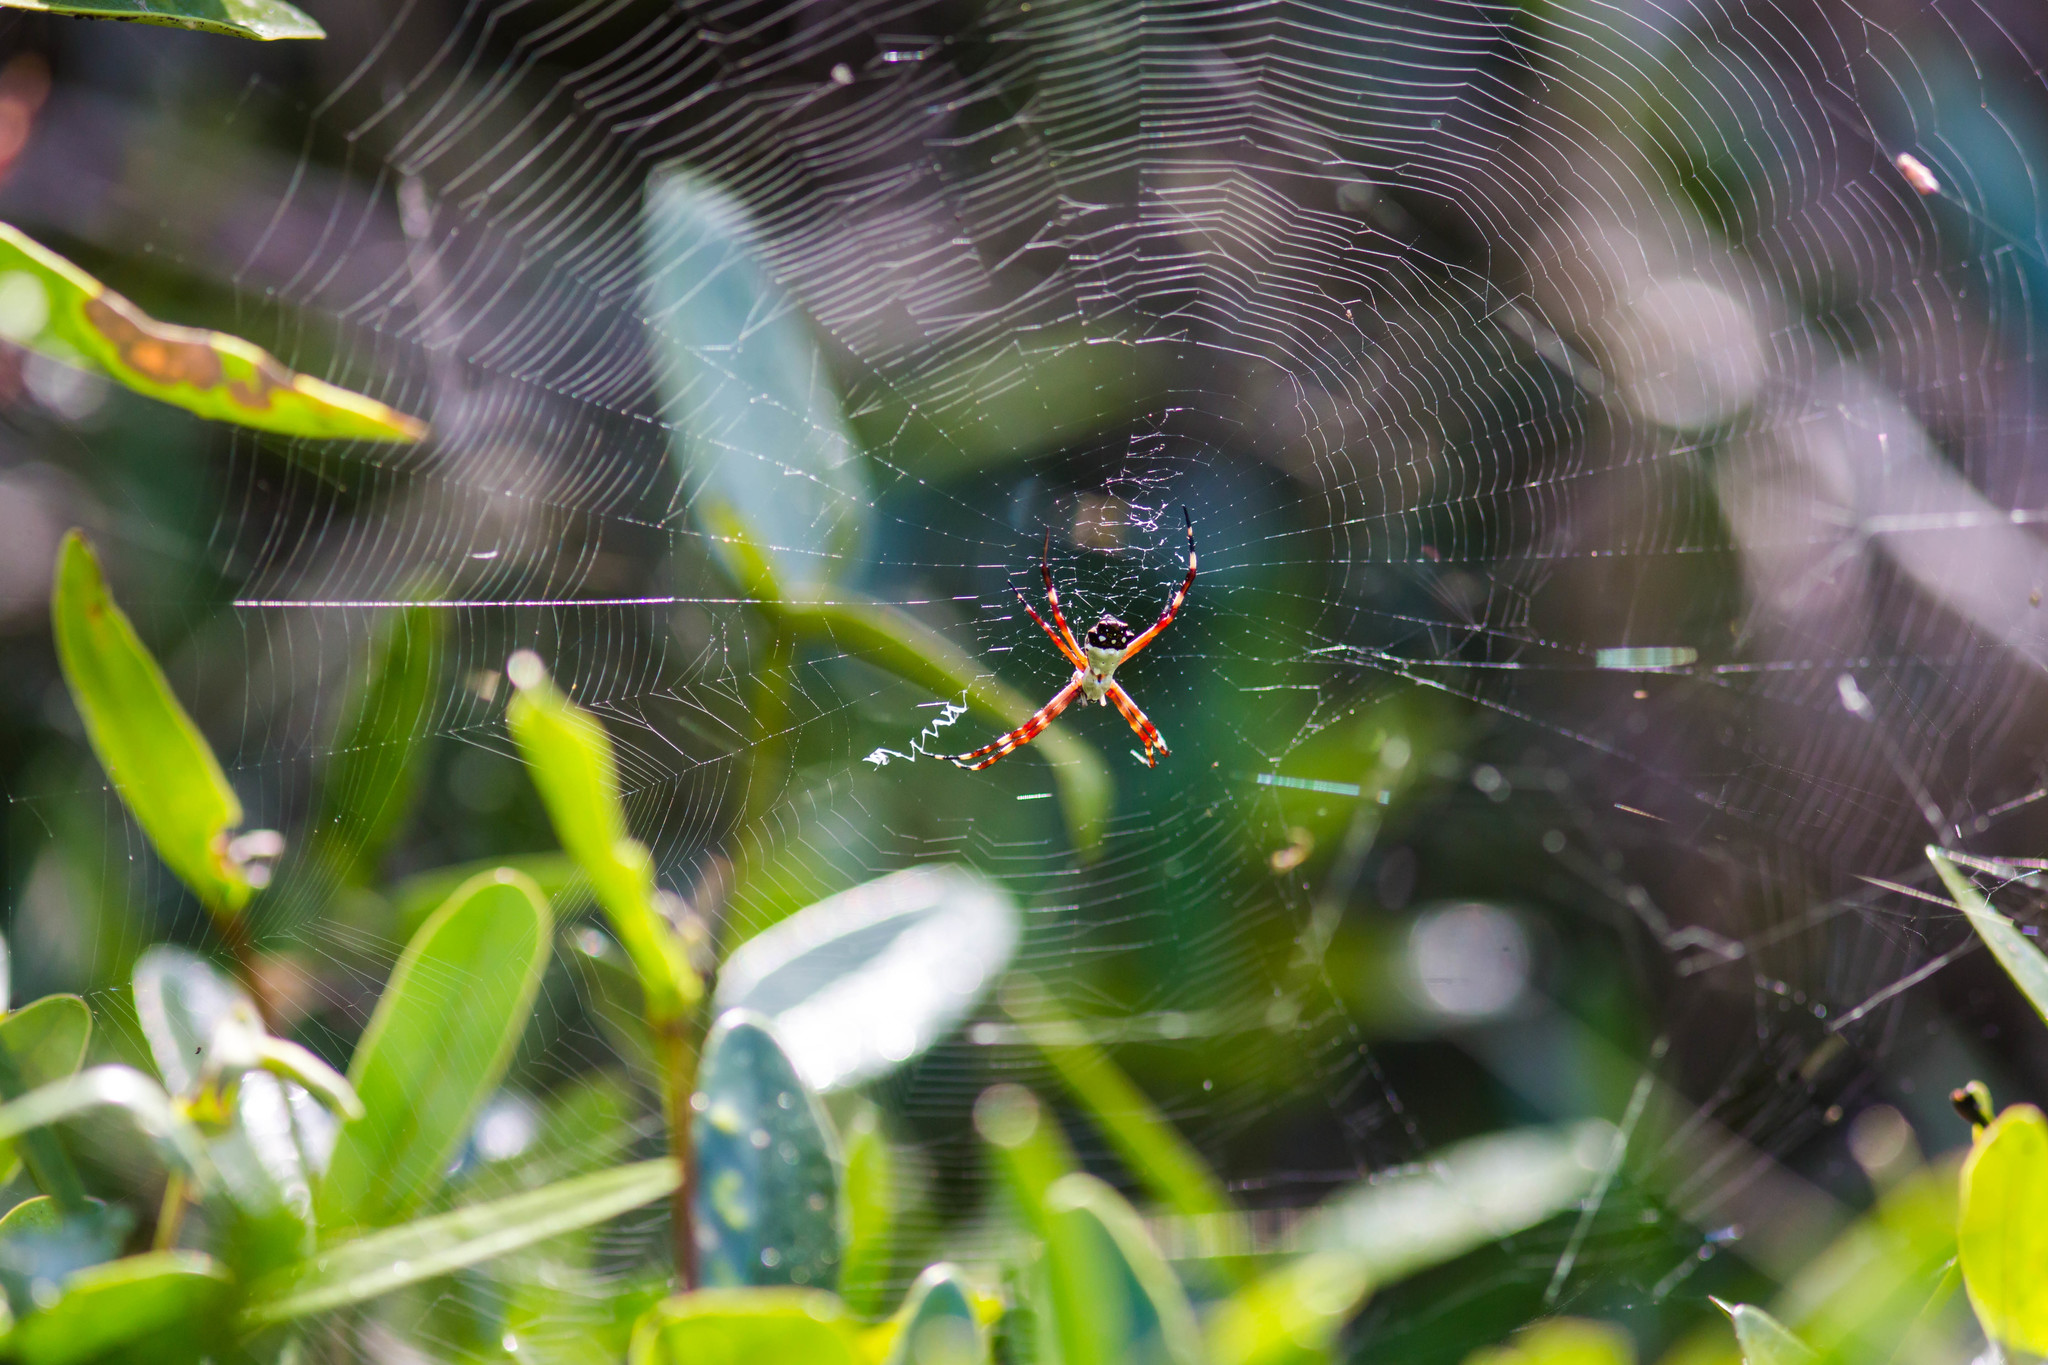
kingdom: Animalia
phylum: Arthropoda
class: Arachnida
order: Araneae
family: Araneidae
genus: Argiope
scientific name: Argiope argentata
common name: Orb weavers
